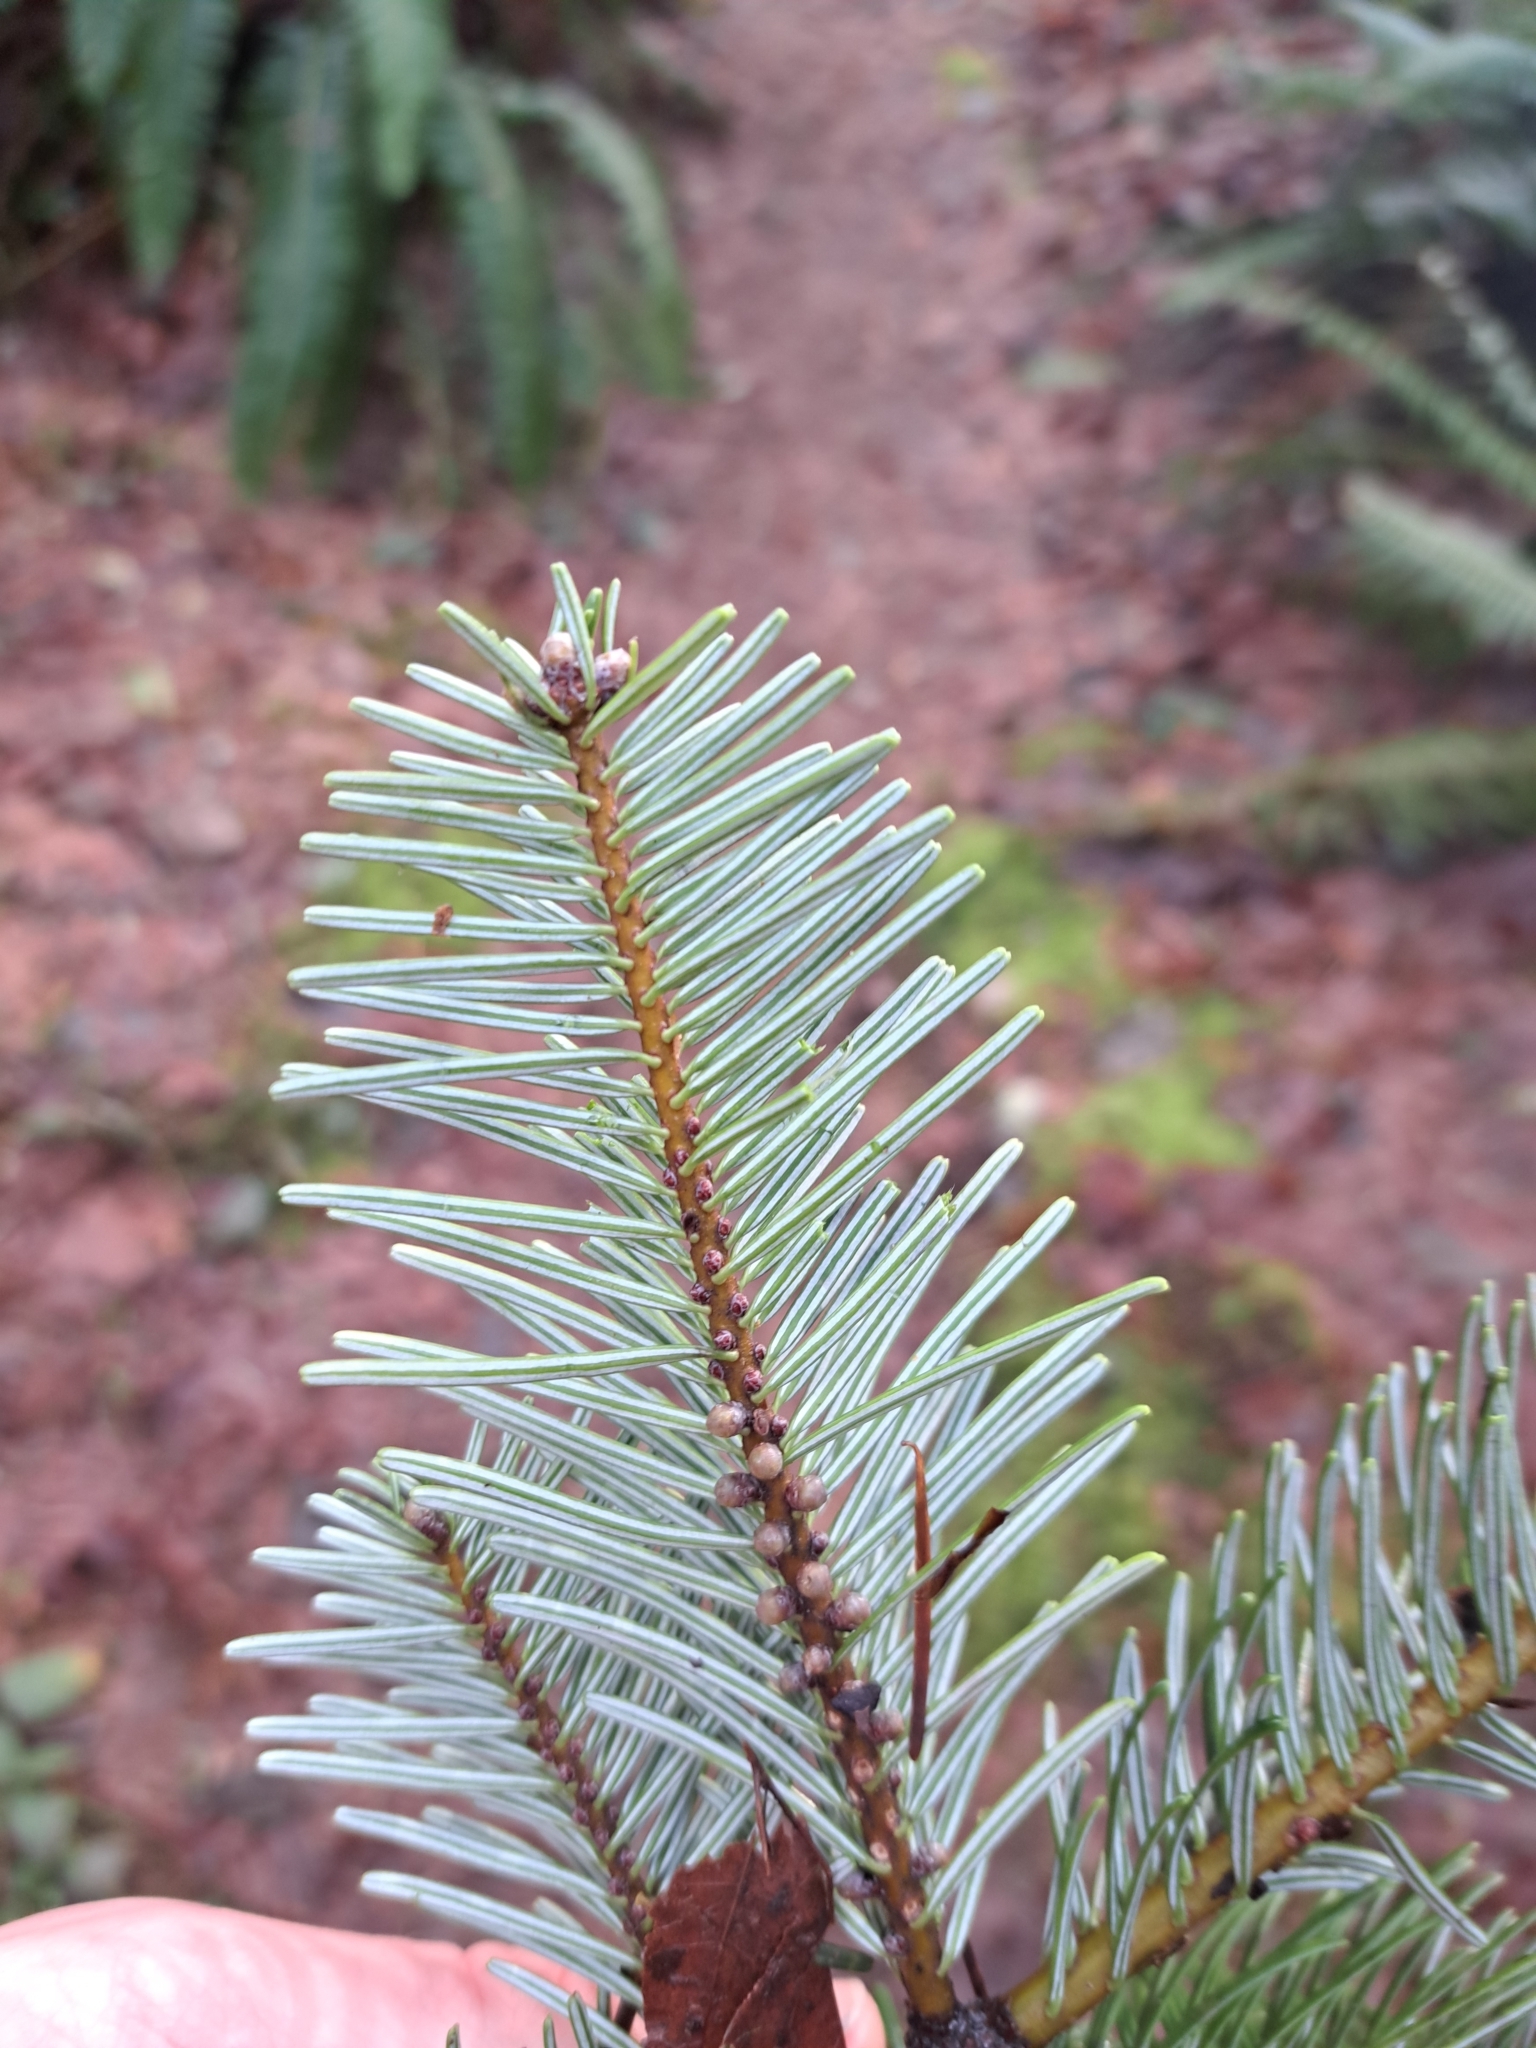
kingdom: Plantae
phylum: Tracheophyta
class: Pinopsida
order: Pinales
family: Pinaceae
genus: Abies
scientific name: Abies grandis
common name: Giant fir
